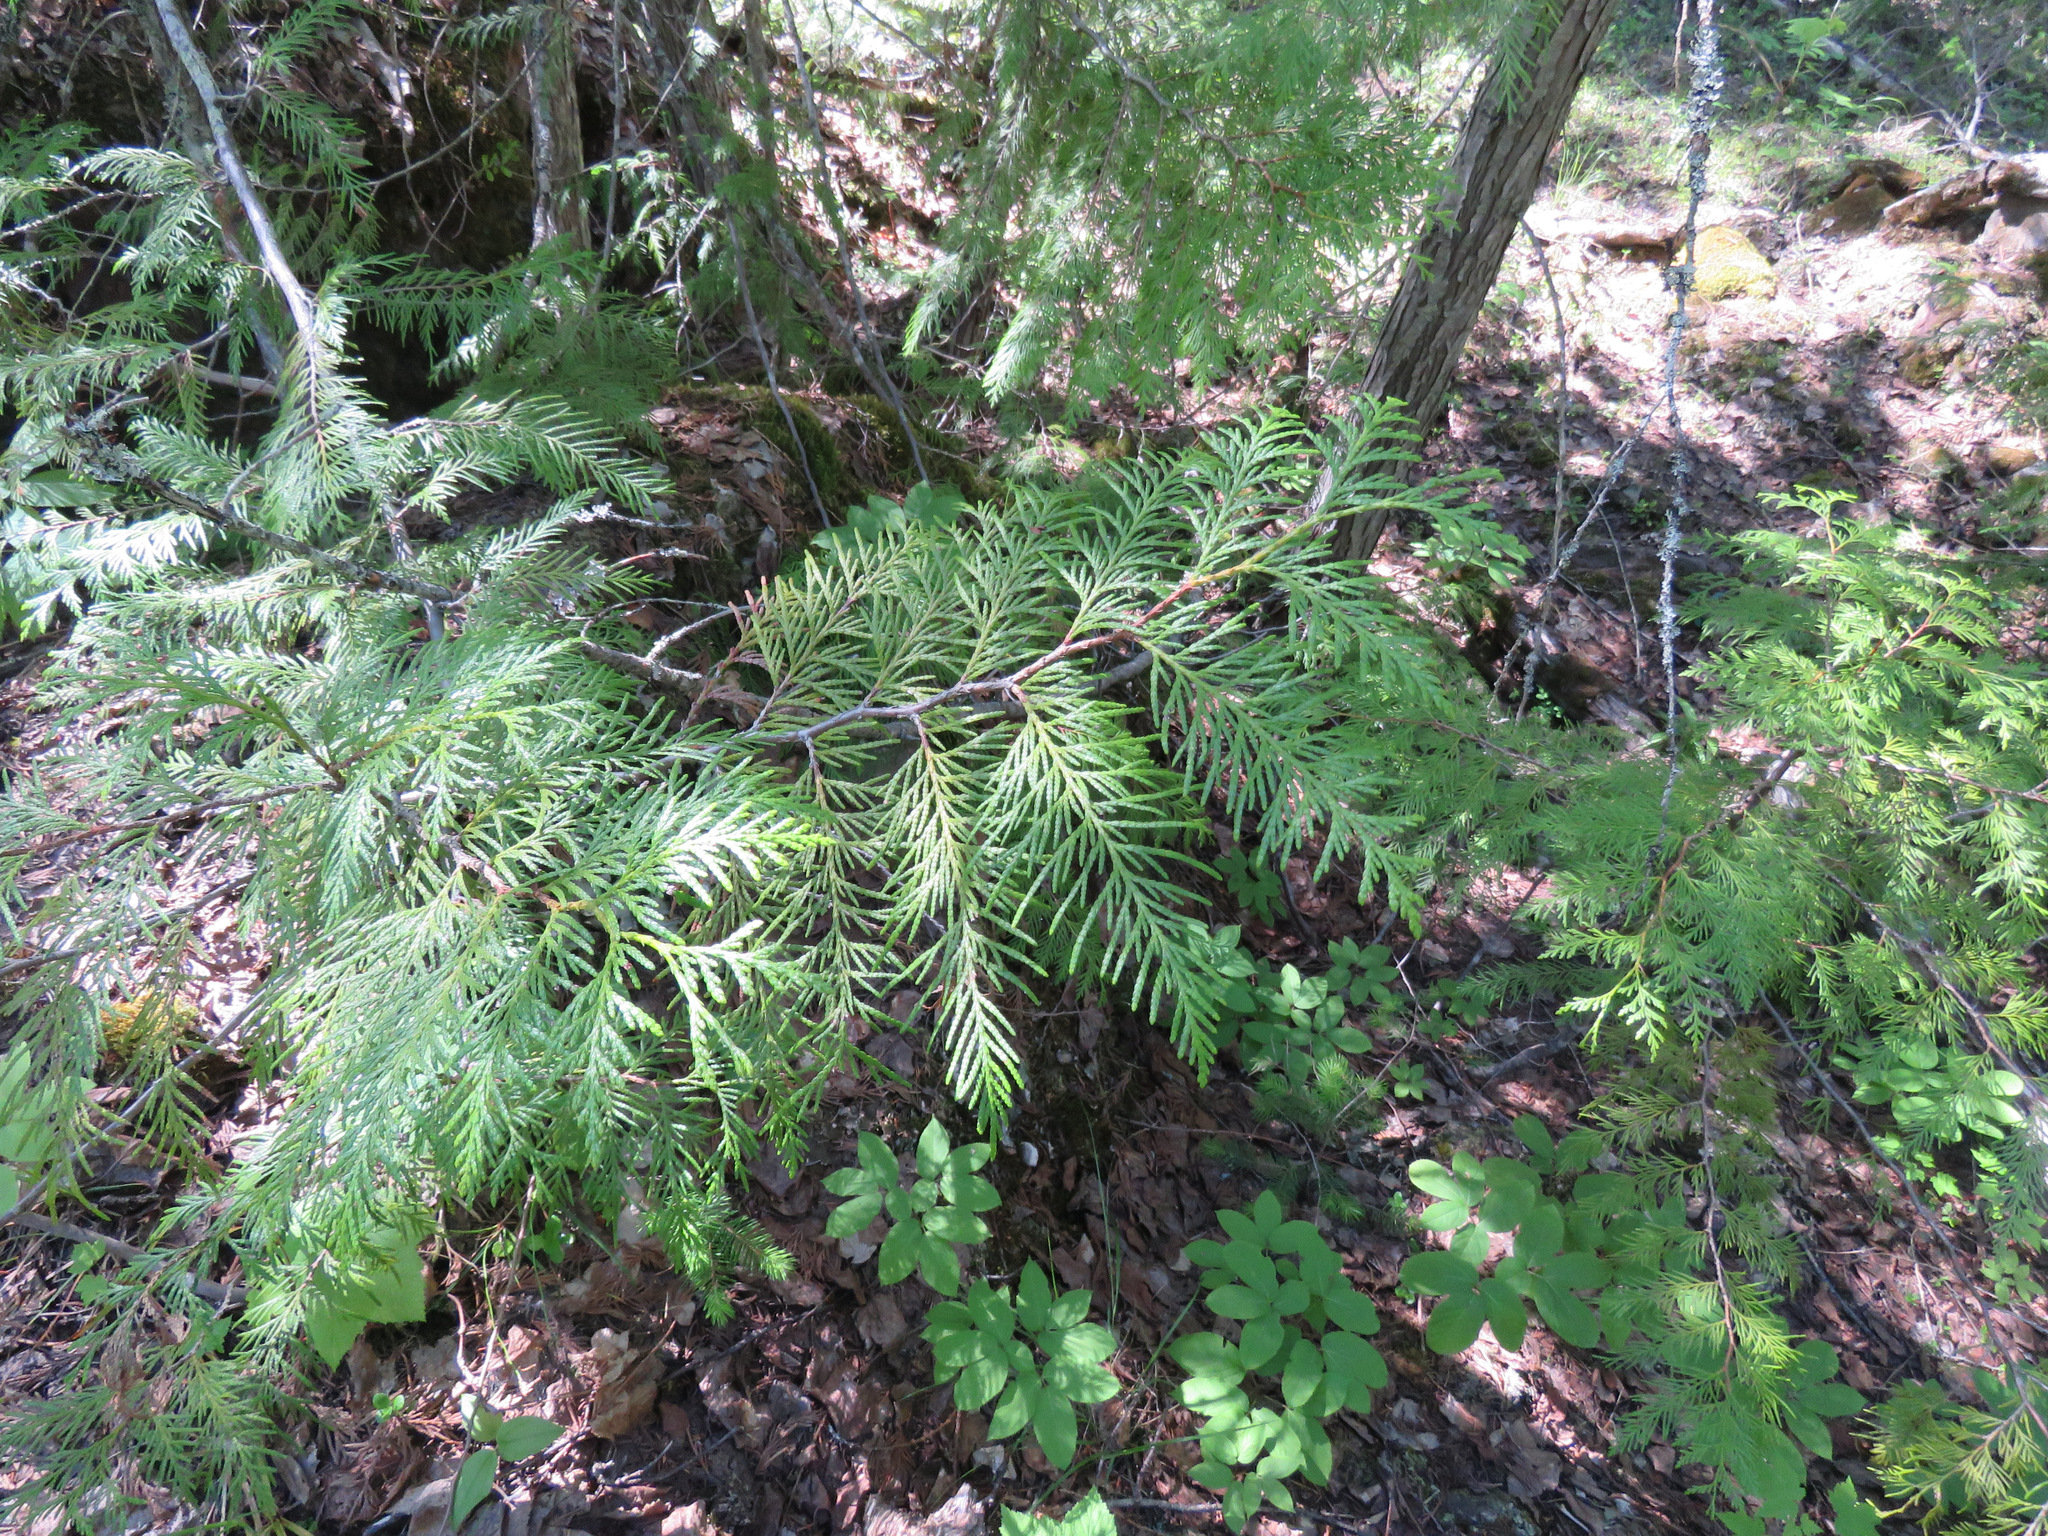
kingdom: Plantae
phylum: Tracheophyta
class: Pinopsida
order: Pinales
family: Cupressaceae
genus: Thuja
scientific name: Thuja plicata
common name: Western red-cedar
